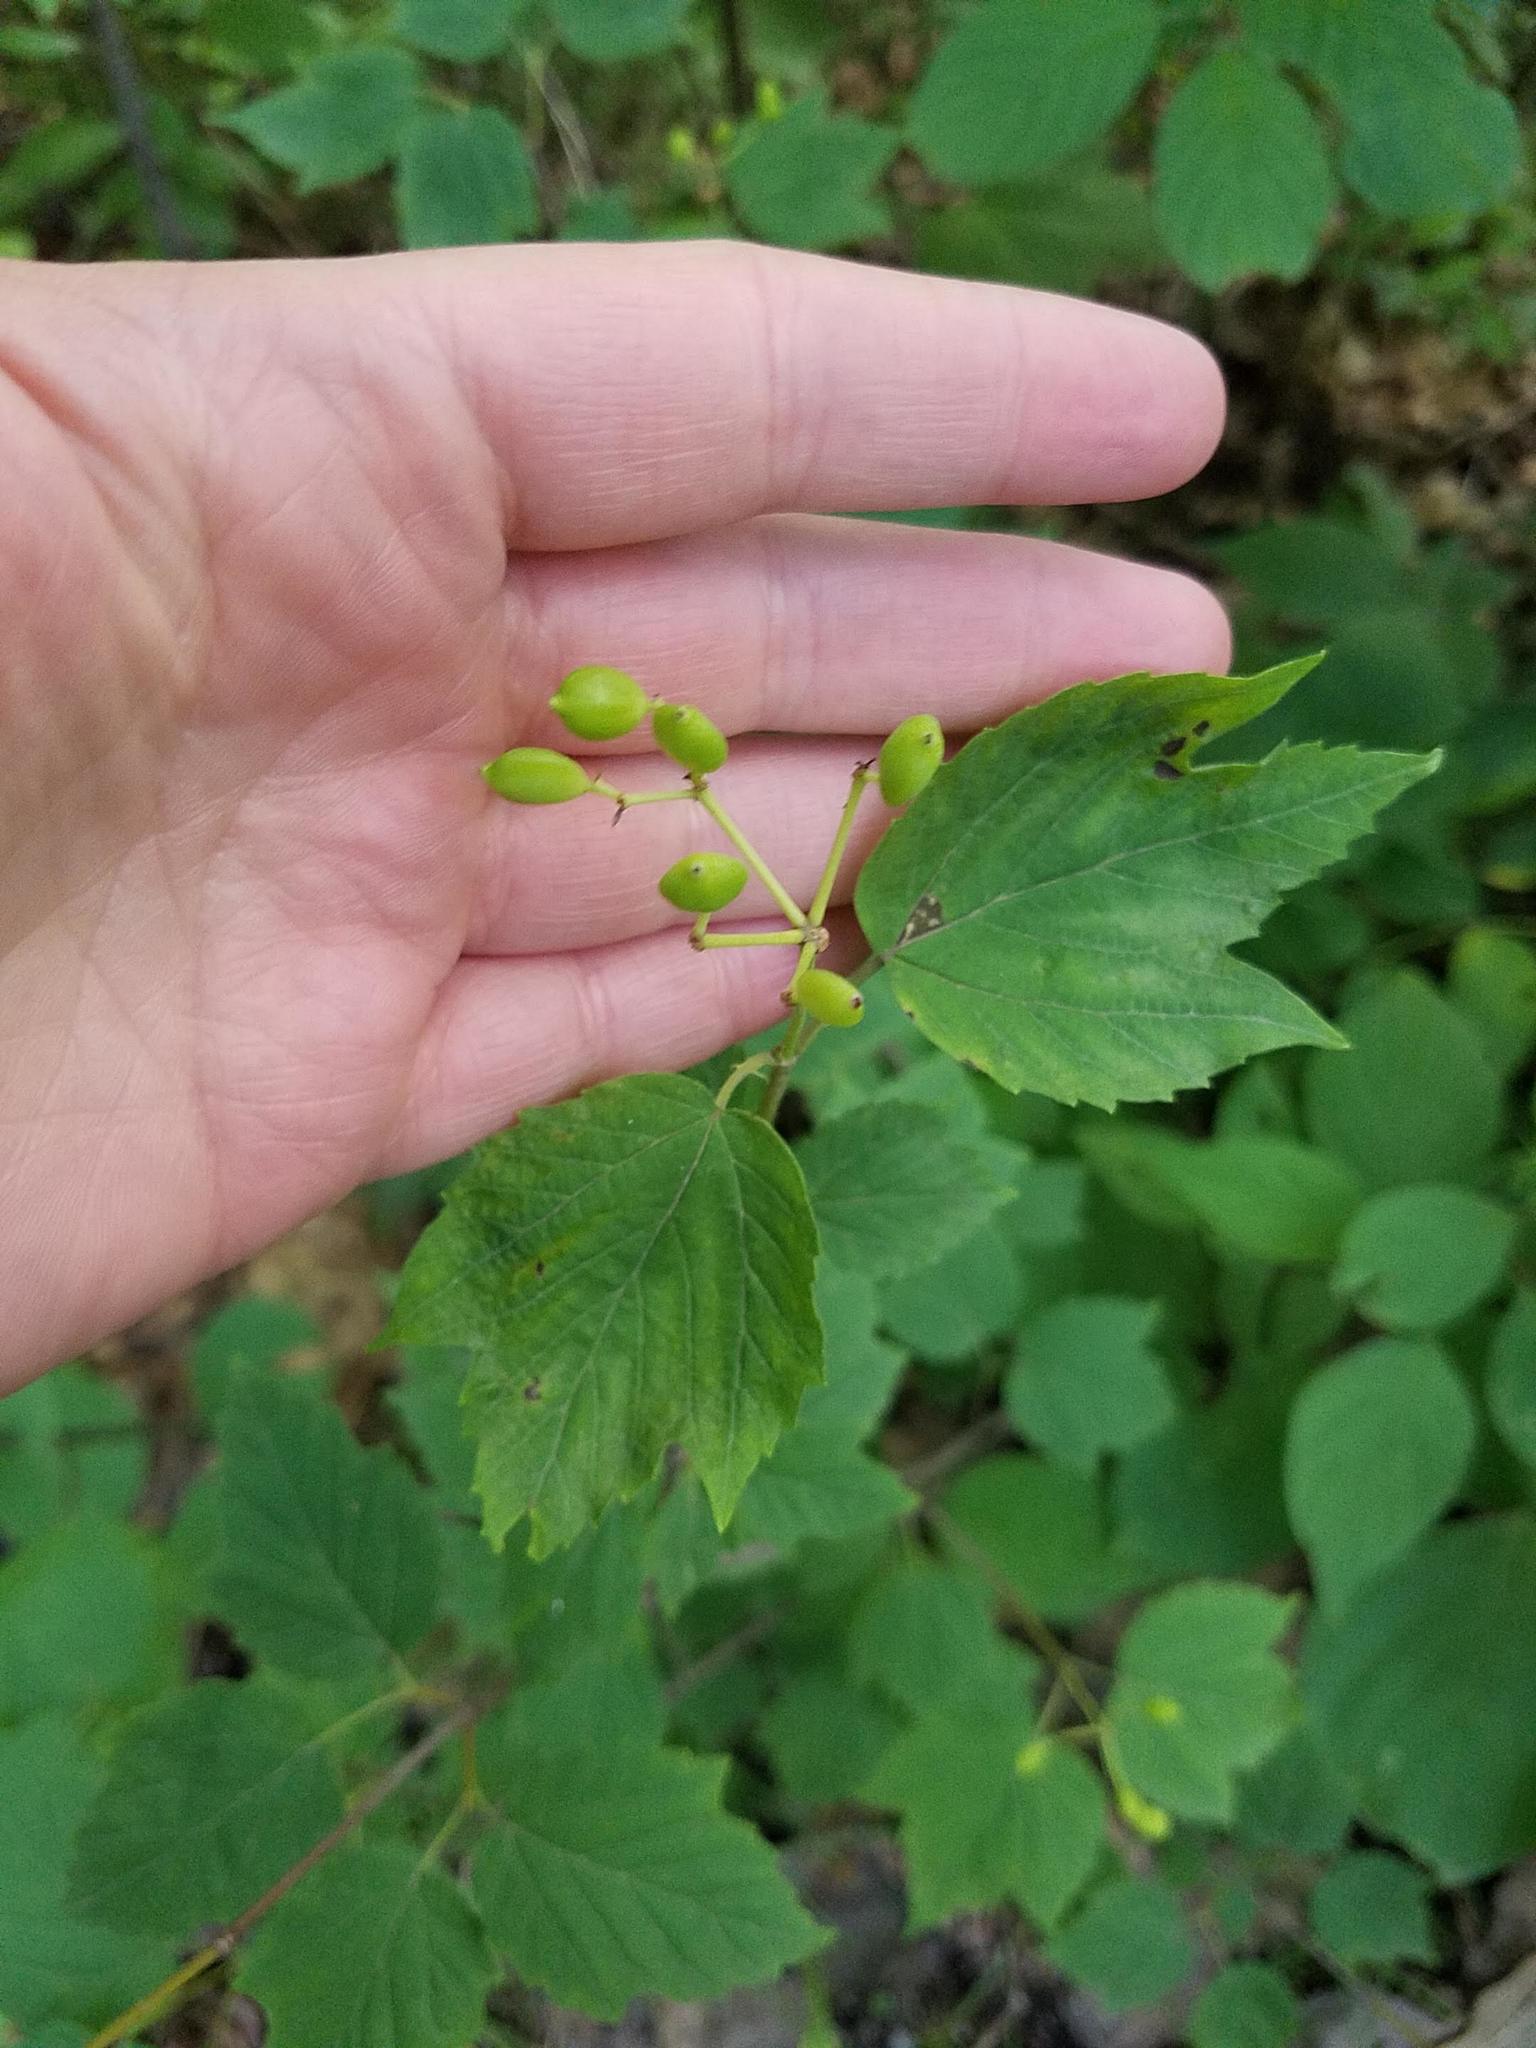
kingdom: Plantae
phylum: Tracheophyta
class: Magnoliopsida
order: Dipsacales
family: Viburnaceae
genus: Viburnum
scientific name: Viburnum acerifolium
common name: Dockmackie
